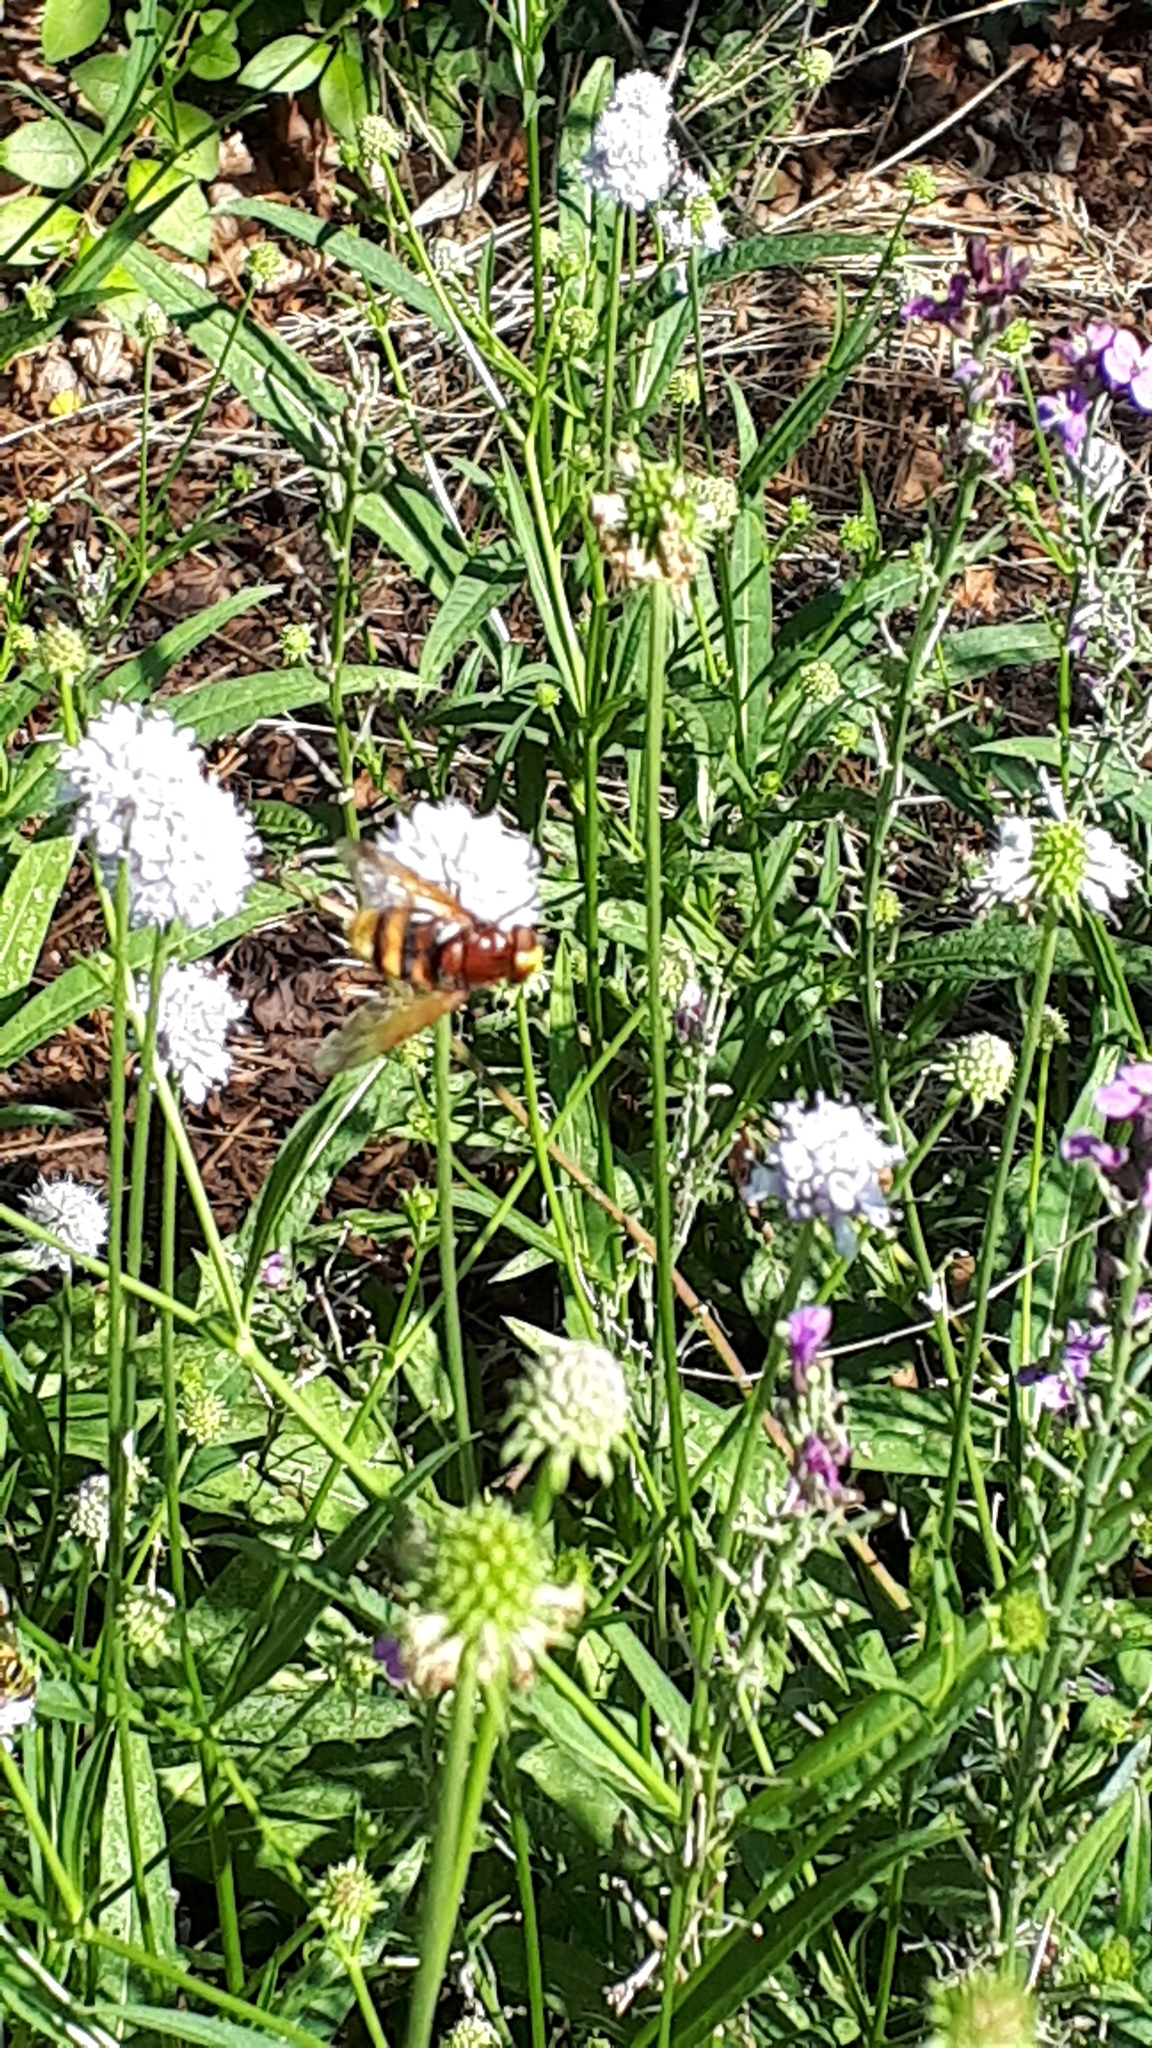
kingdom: Animalia
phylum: Arthropoda
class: Insecta
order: Diptera
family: Syrphidae
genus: Volucella
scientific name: Volucella zonaria
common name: Hornet hoverfly
